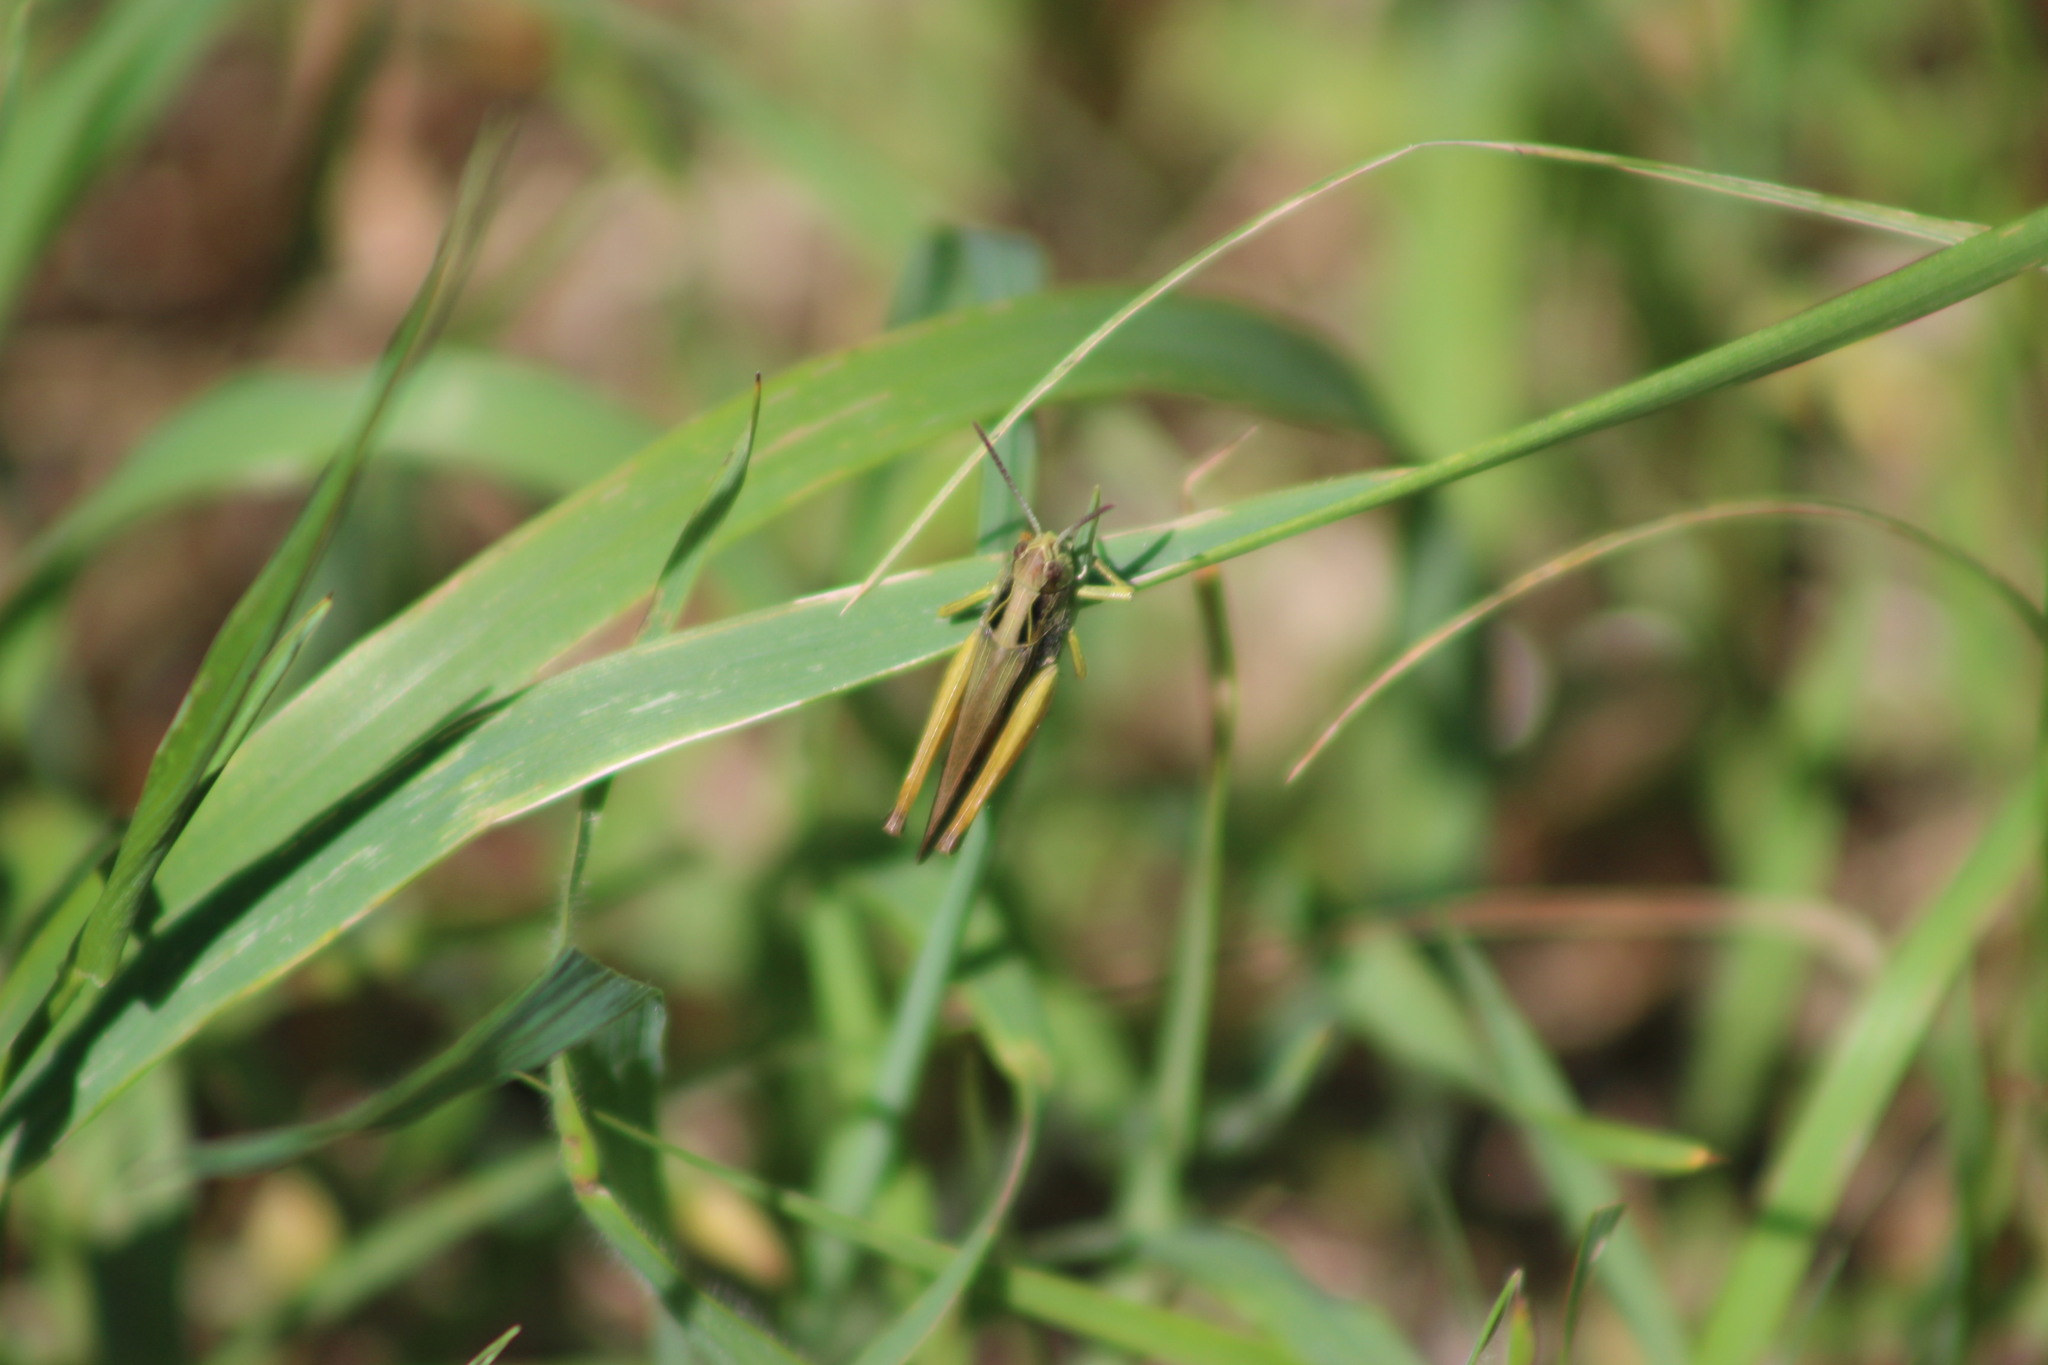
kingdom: Animalia
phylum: Arthropoda
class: Insecta
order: Orthoptera
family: Acrididae
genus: Omocestus
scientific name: Omocestus viridulus
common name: Common green grasshopper
